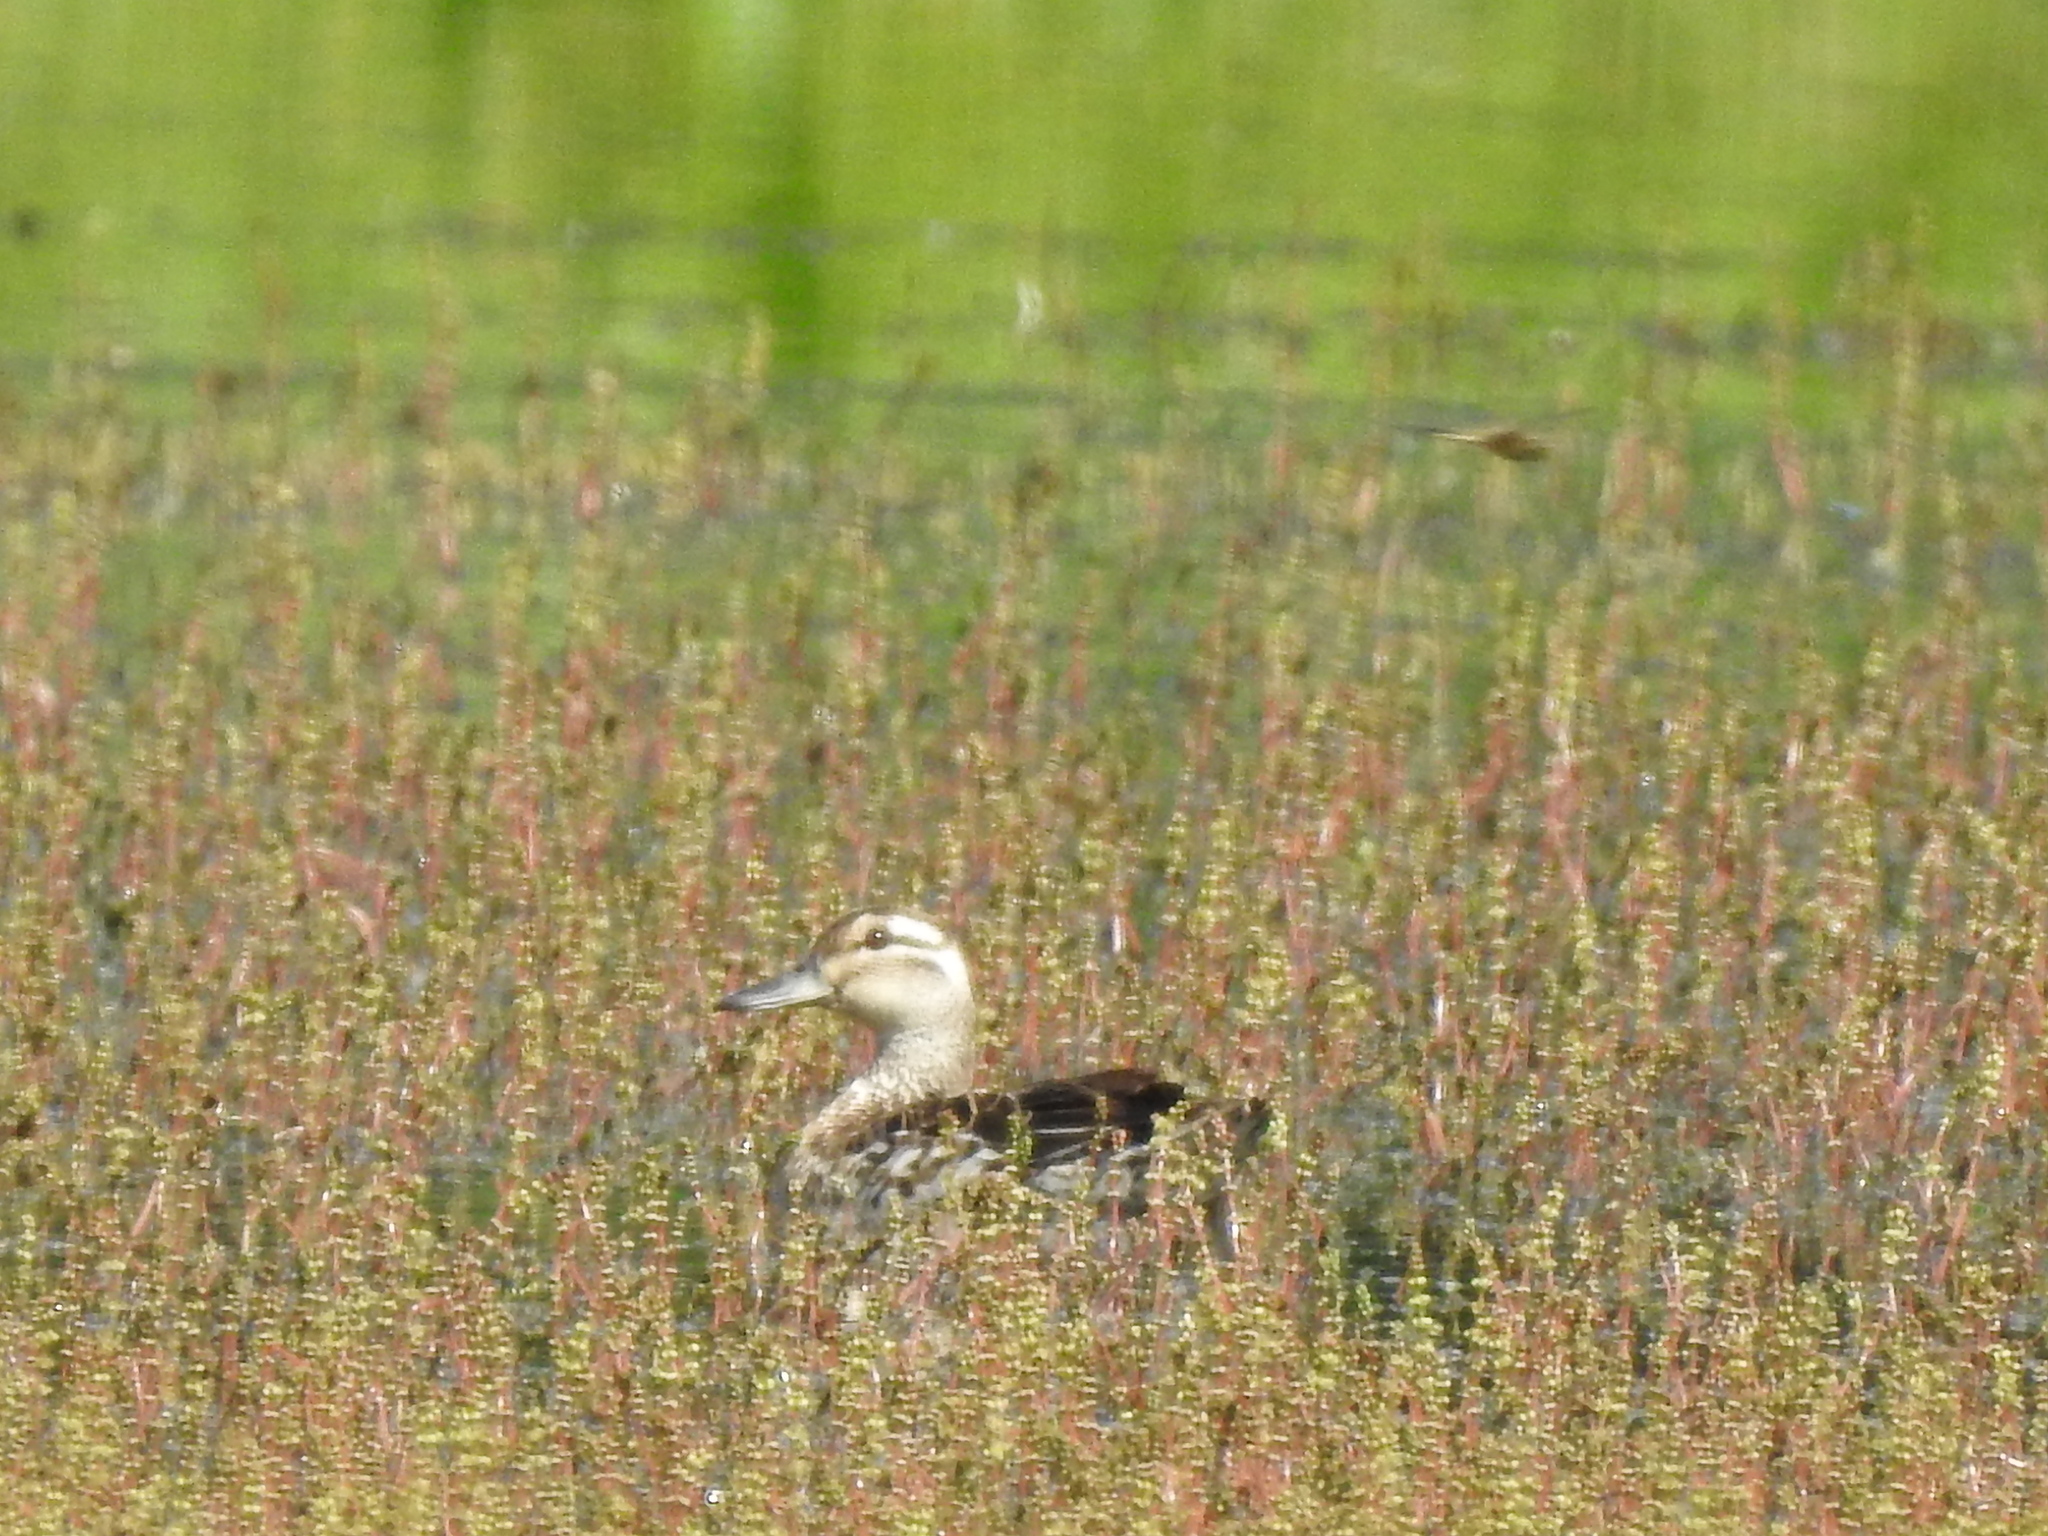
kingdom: Animalia
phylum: Chordata
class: Aves
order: Anseriformes
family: Anatidae
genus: Spatula
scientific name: Spatula querquedula
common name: Garganey
